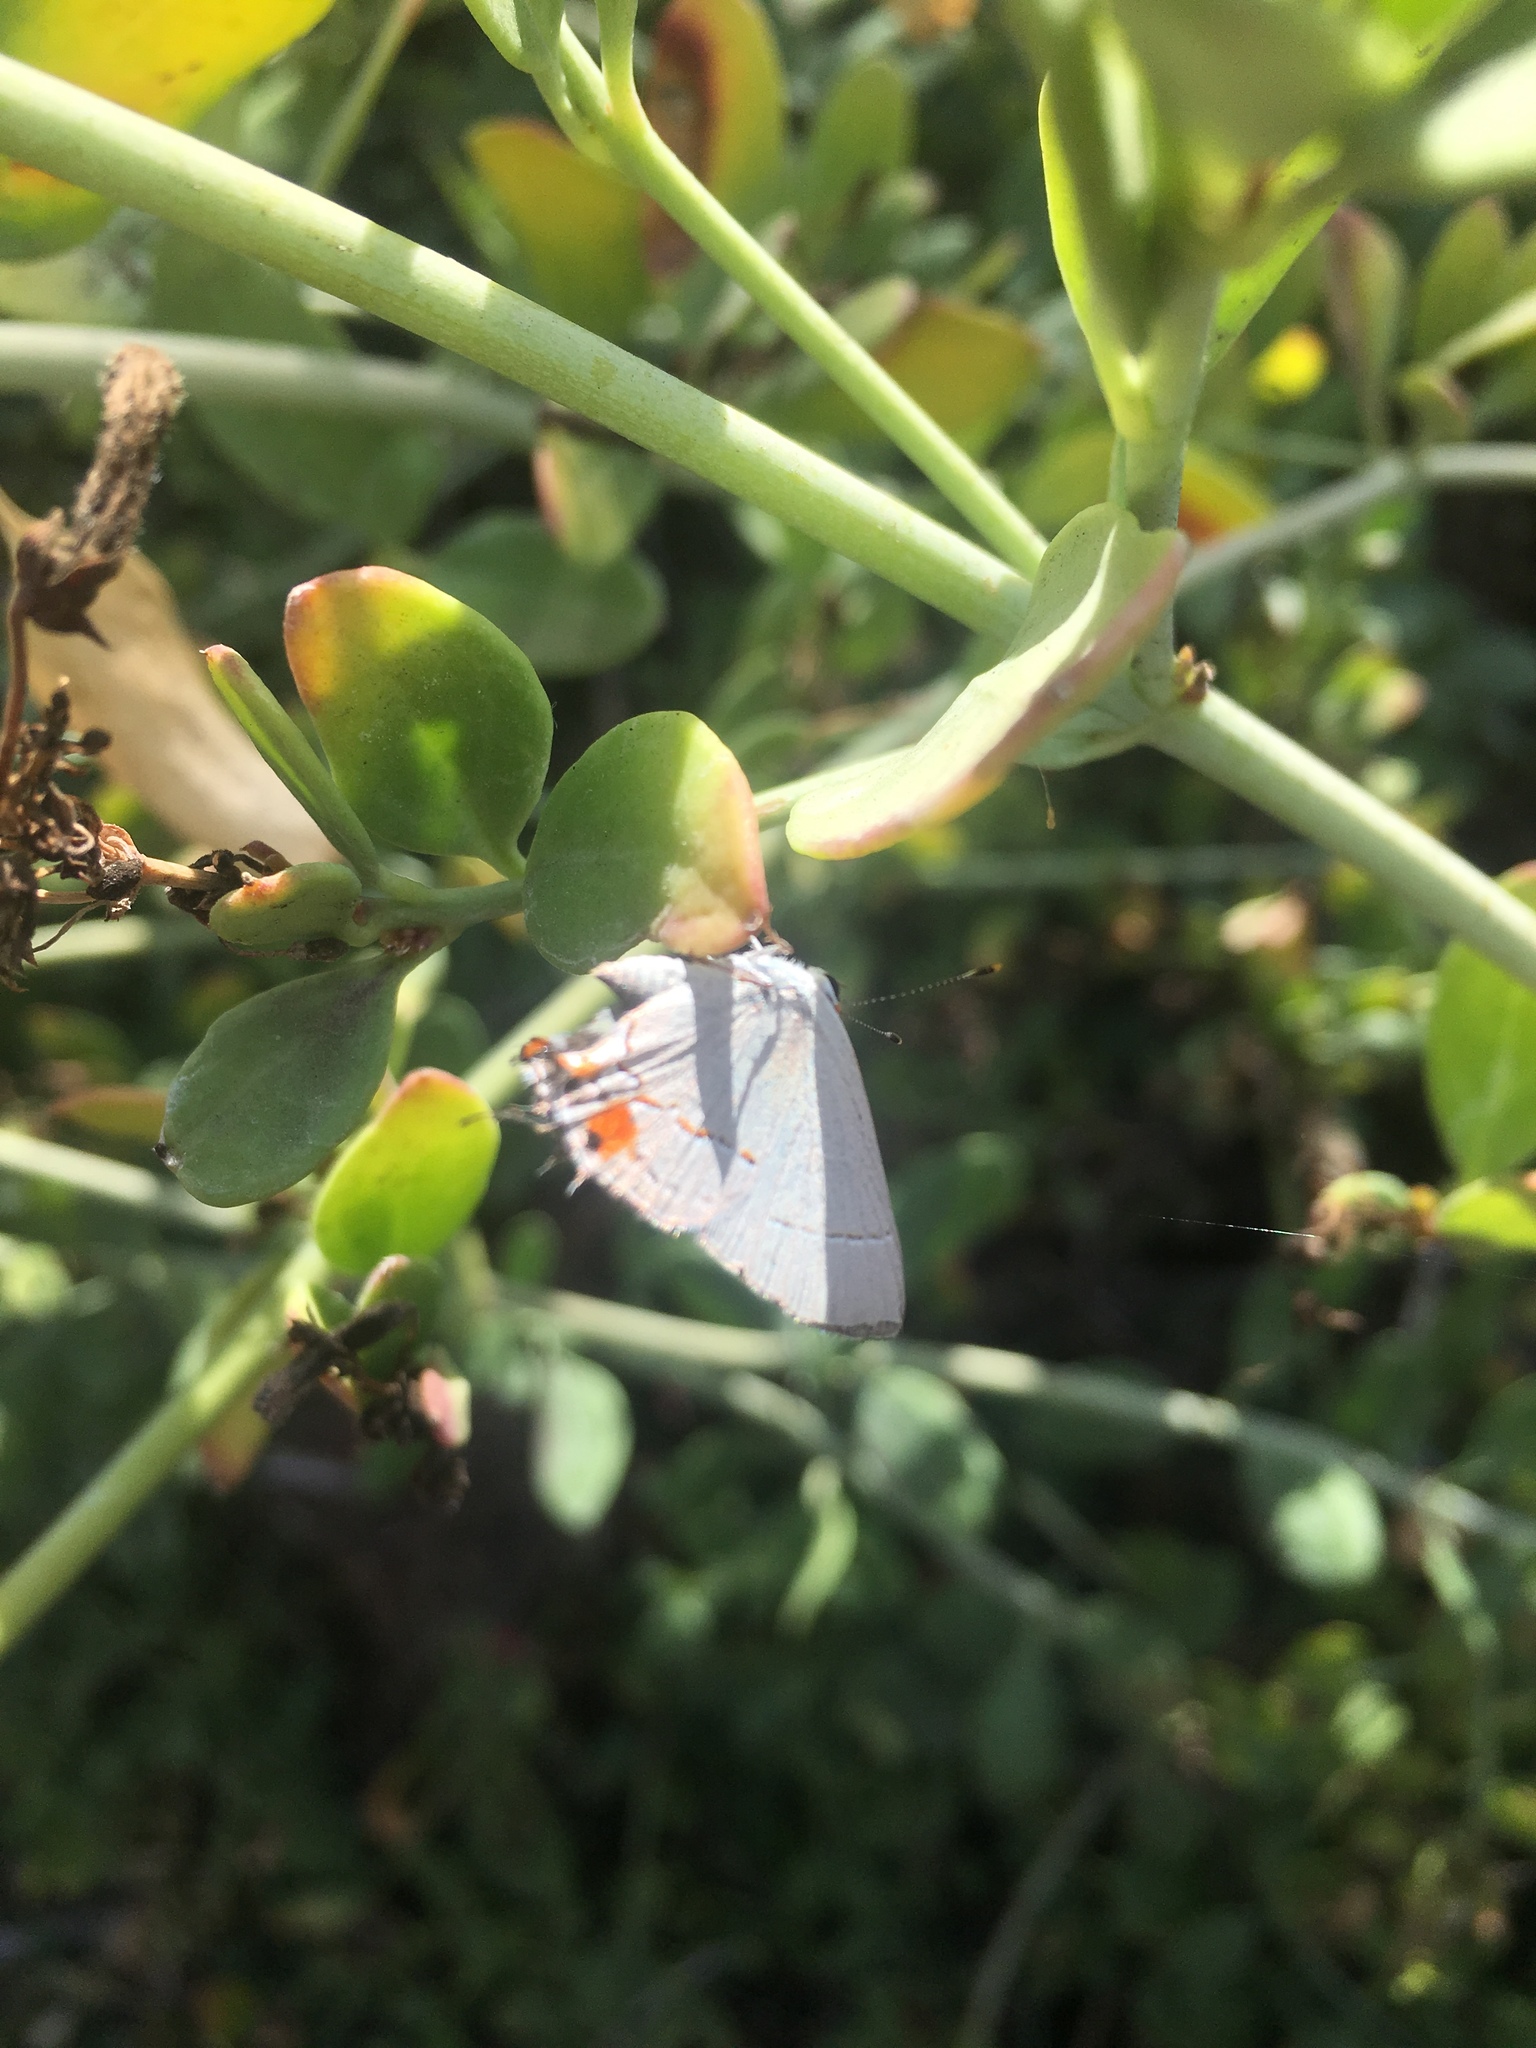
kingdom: Animalia
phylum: Arthropoda
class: Insecta
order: Lepidoptera
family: Lycaenidae
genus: Strymon
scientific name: Strymon melinus
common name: Gray hairstreak
